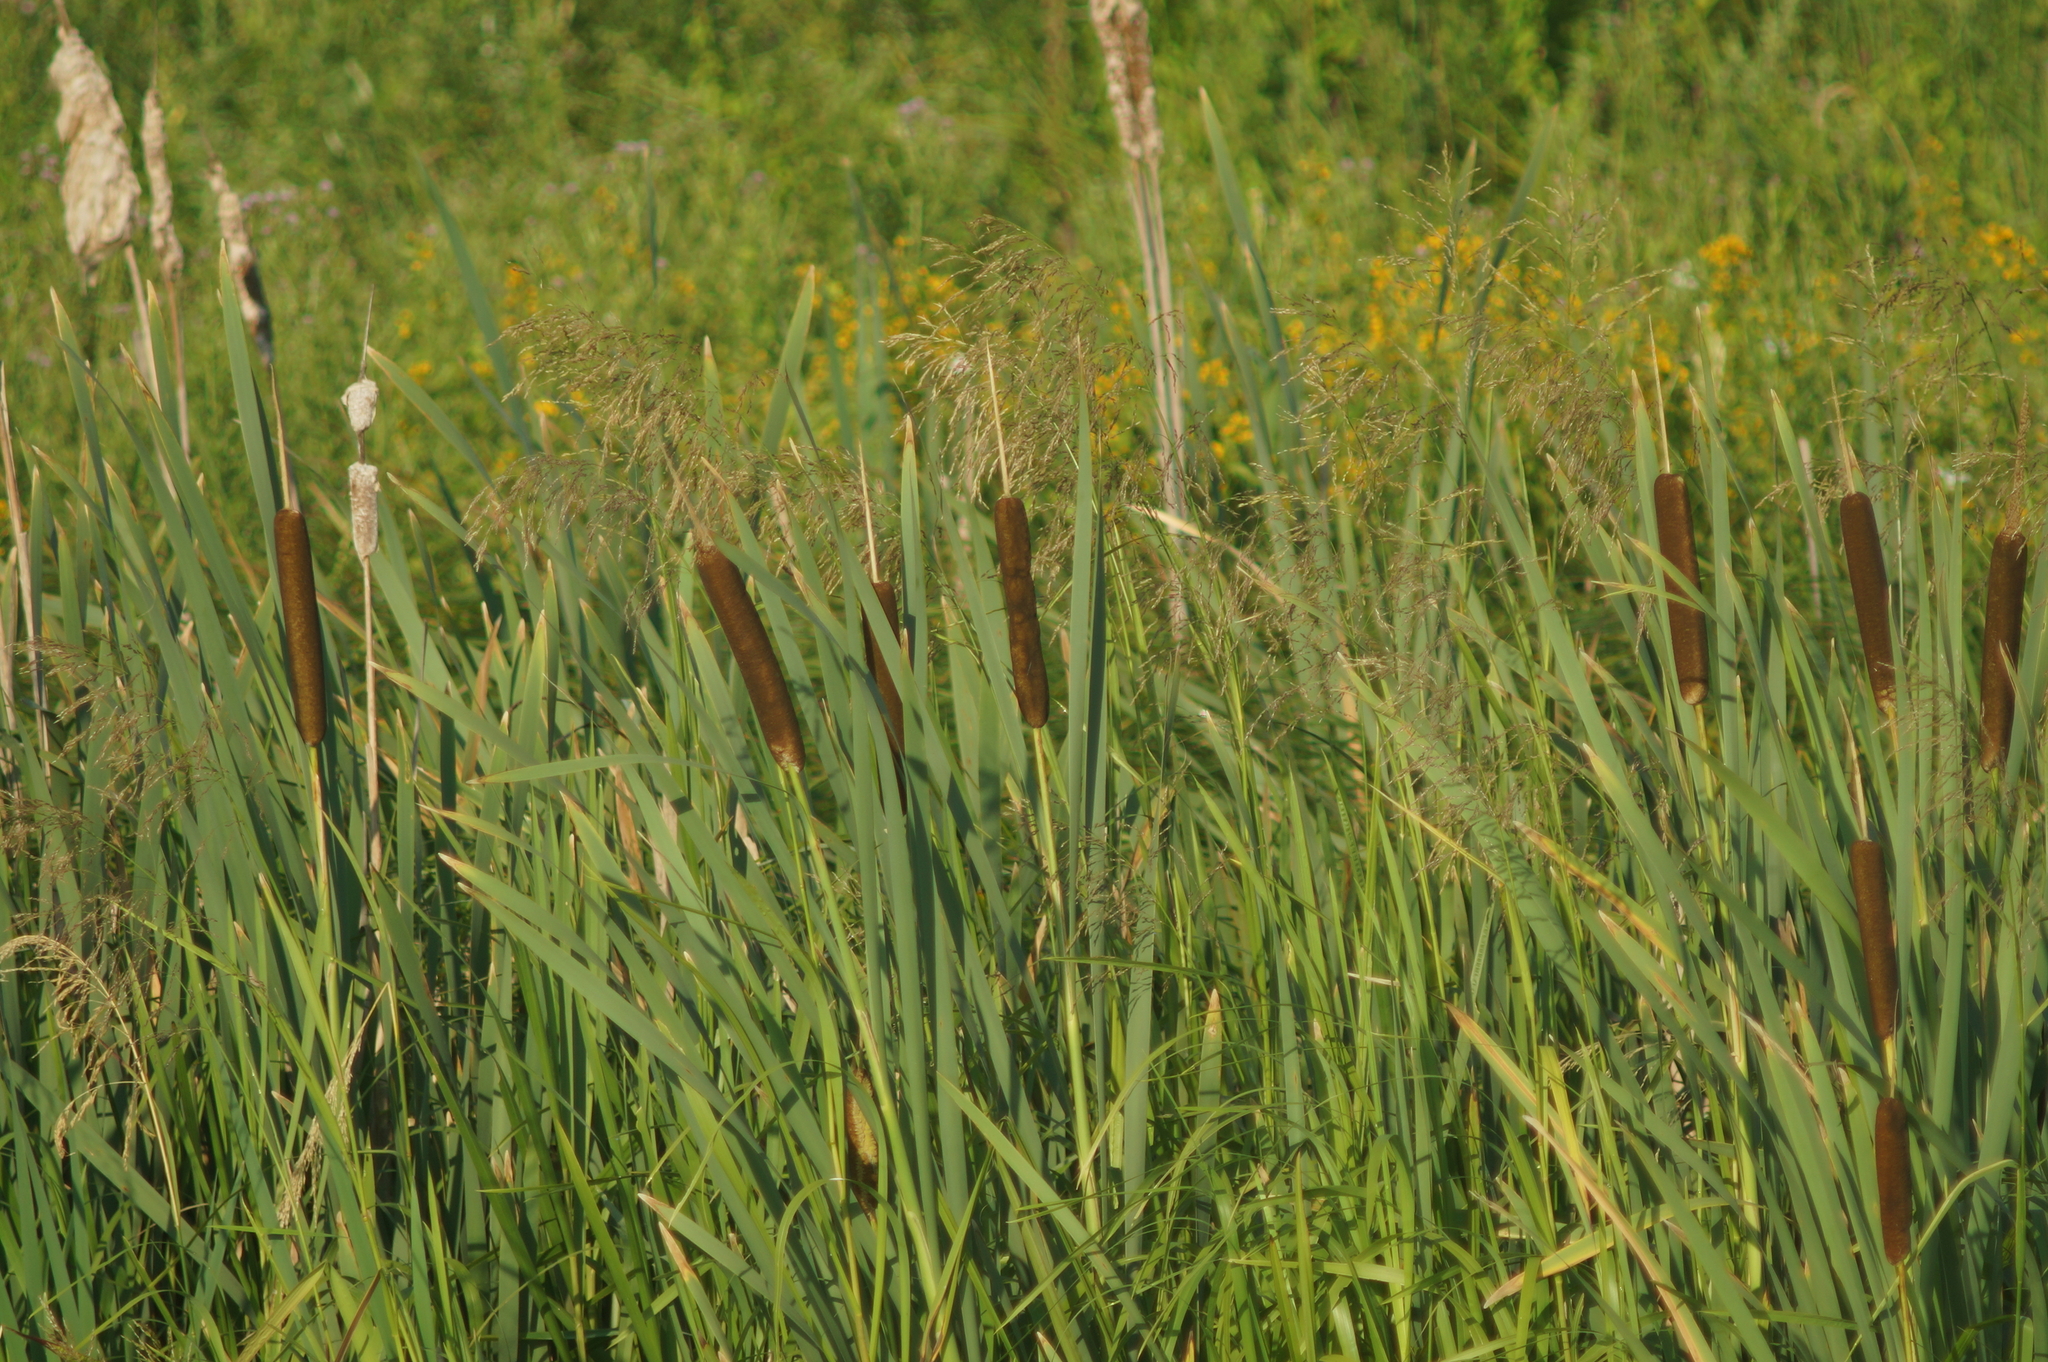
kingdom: Plantae
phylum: Tracheophyta
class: Liliopsida
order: Poales
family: Typhaceae
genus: Typha
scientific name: Typha latifolia
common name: Broadleaf cattail
